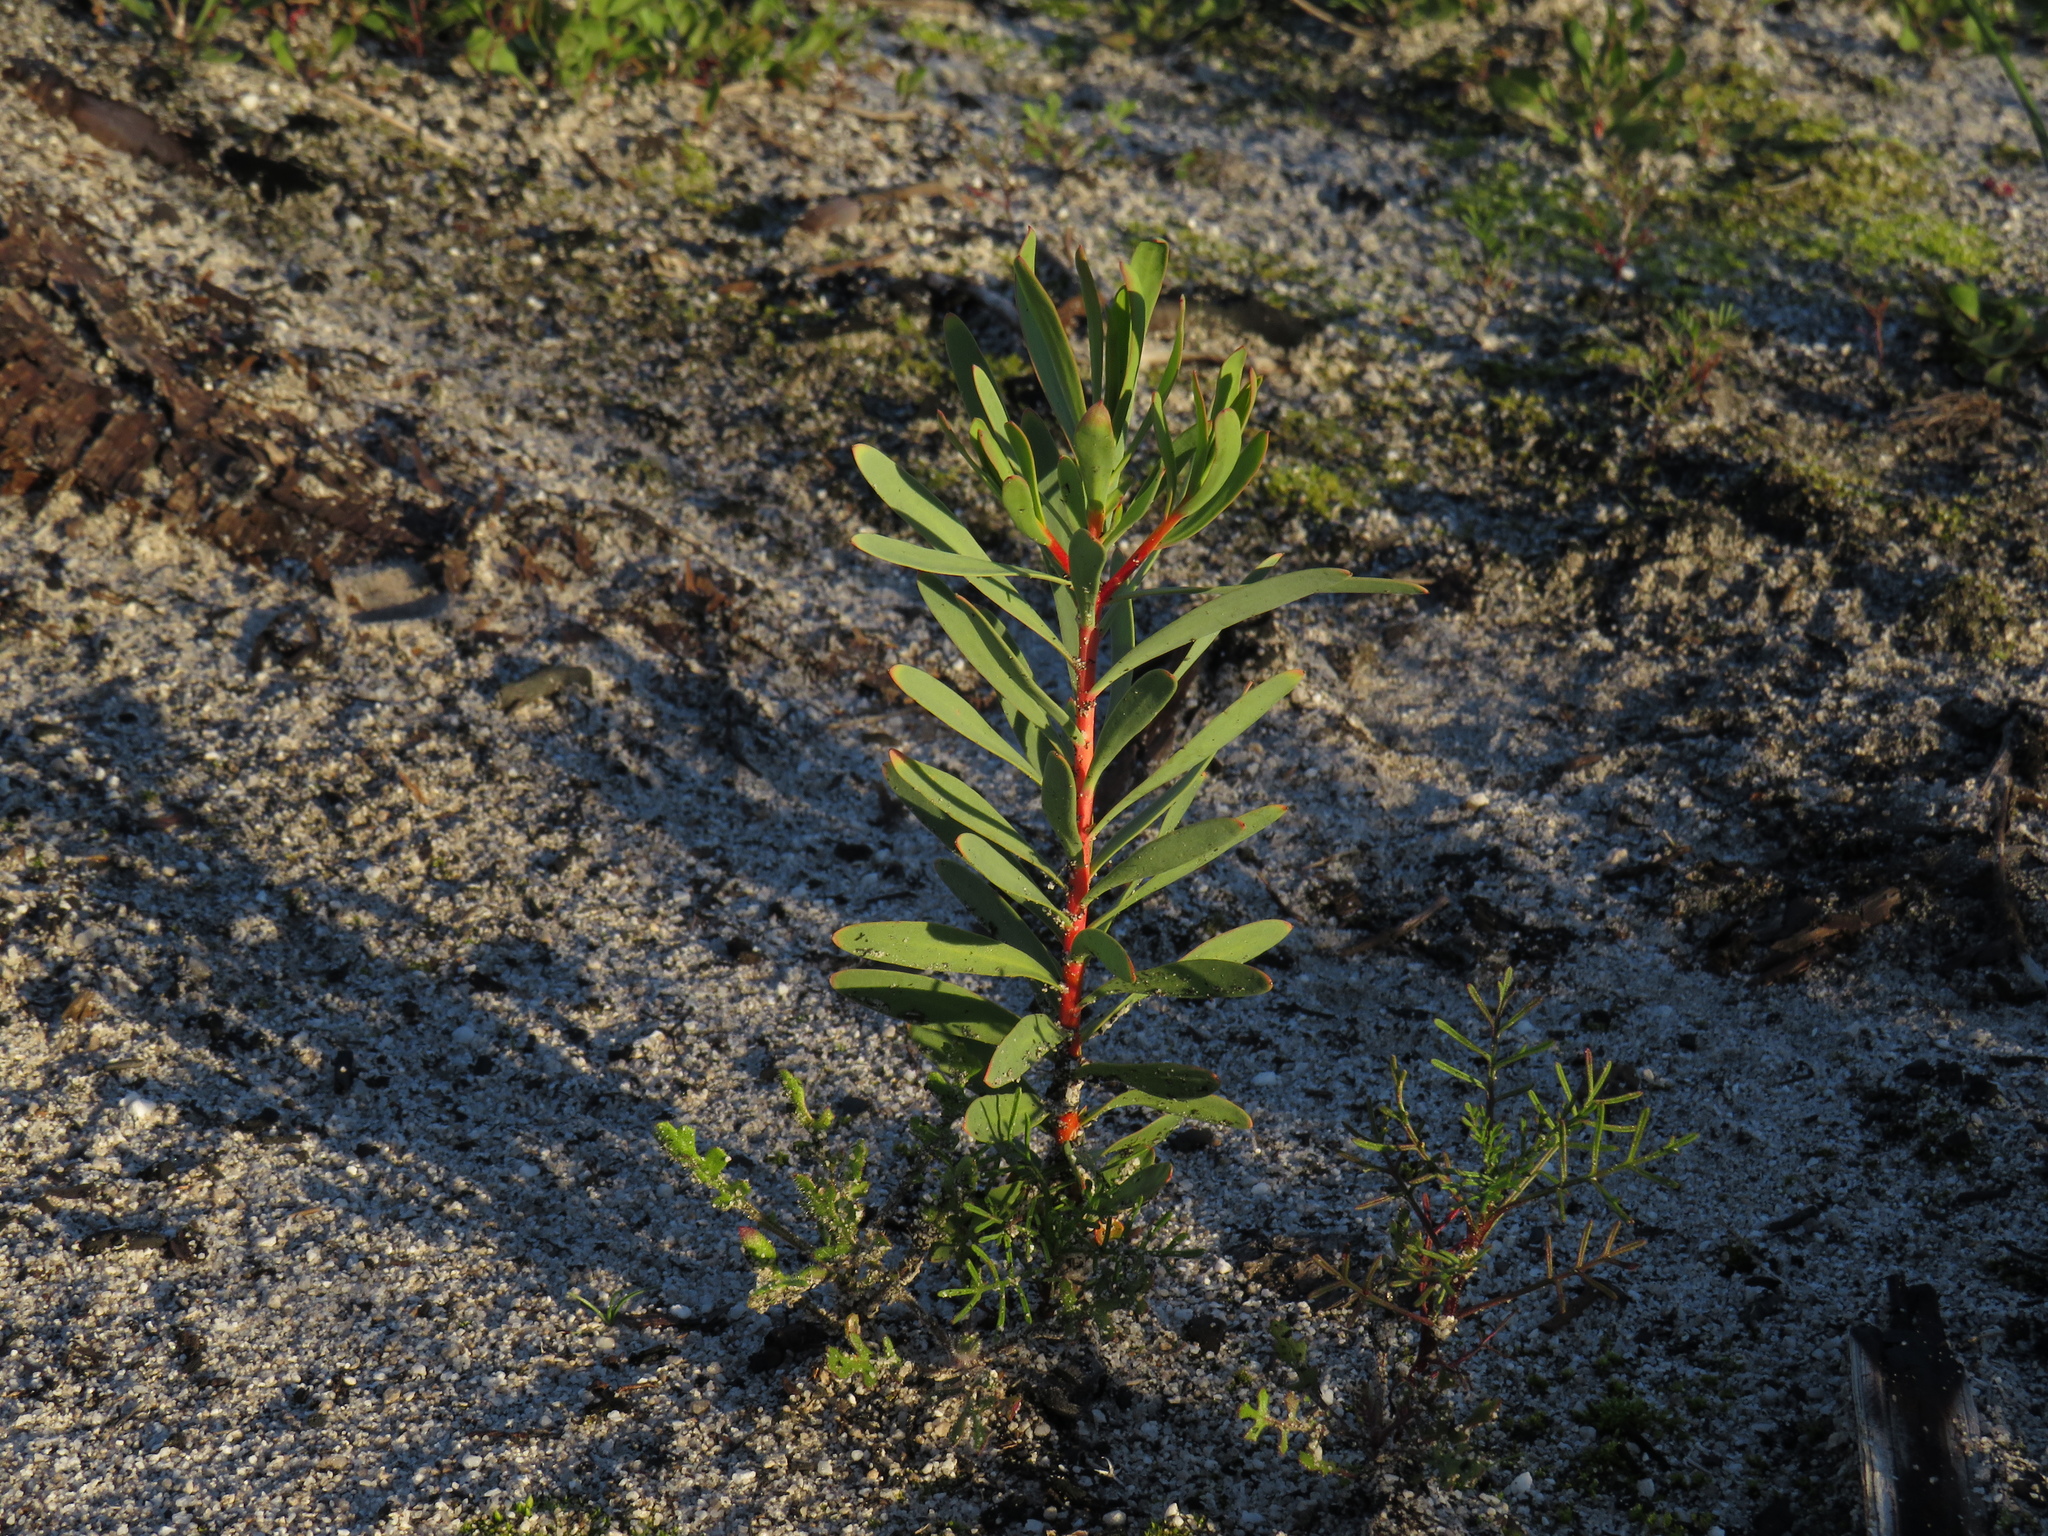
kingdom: Plantae
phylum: Tracheophyta
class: Magnoliopsida
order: Proteales
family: Proteaceae
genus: Protea
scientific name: Protea repens
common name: Sugarbush
